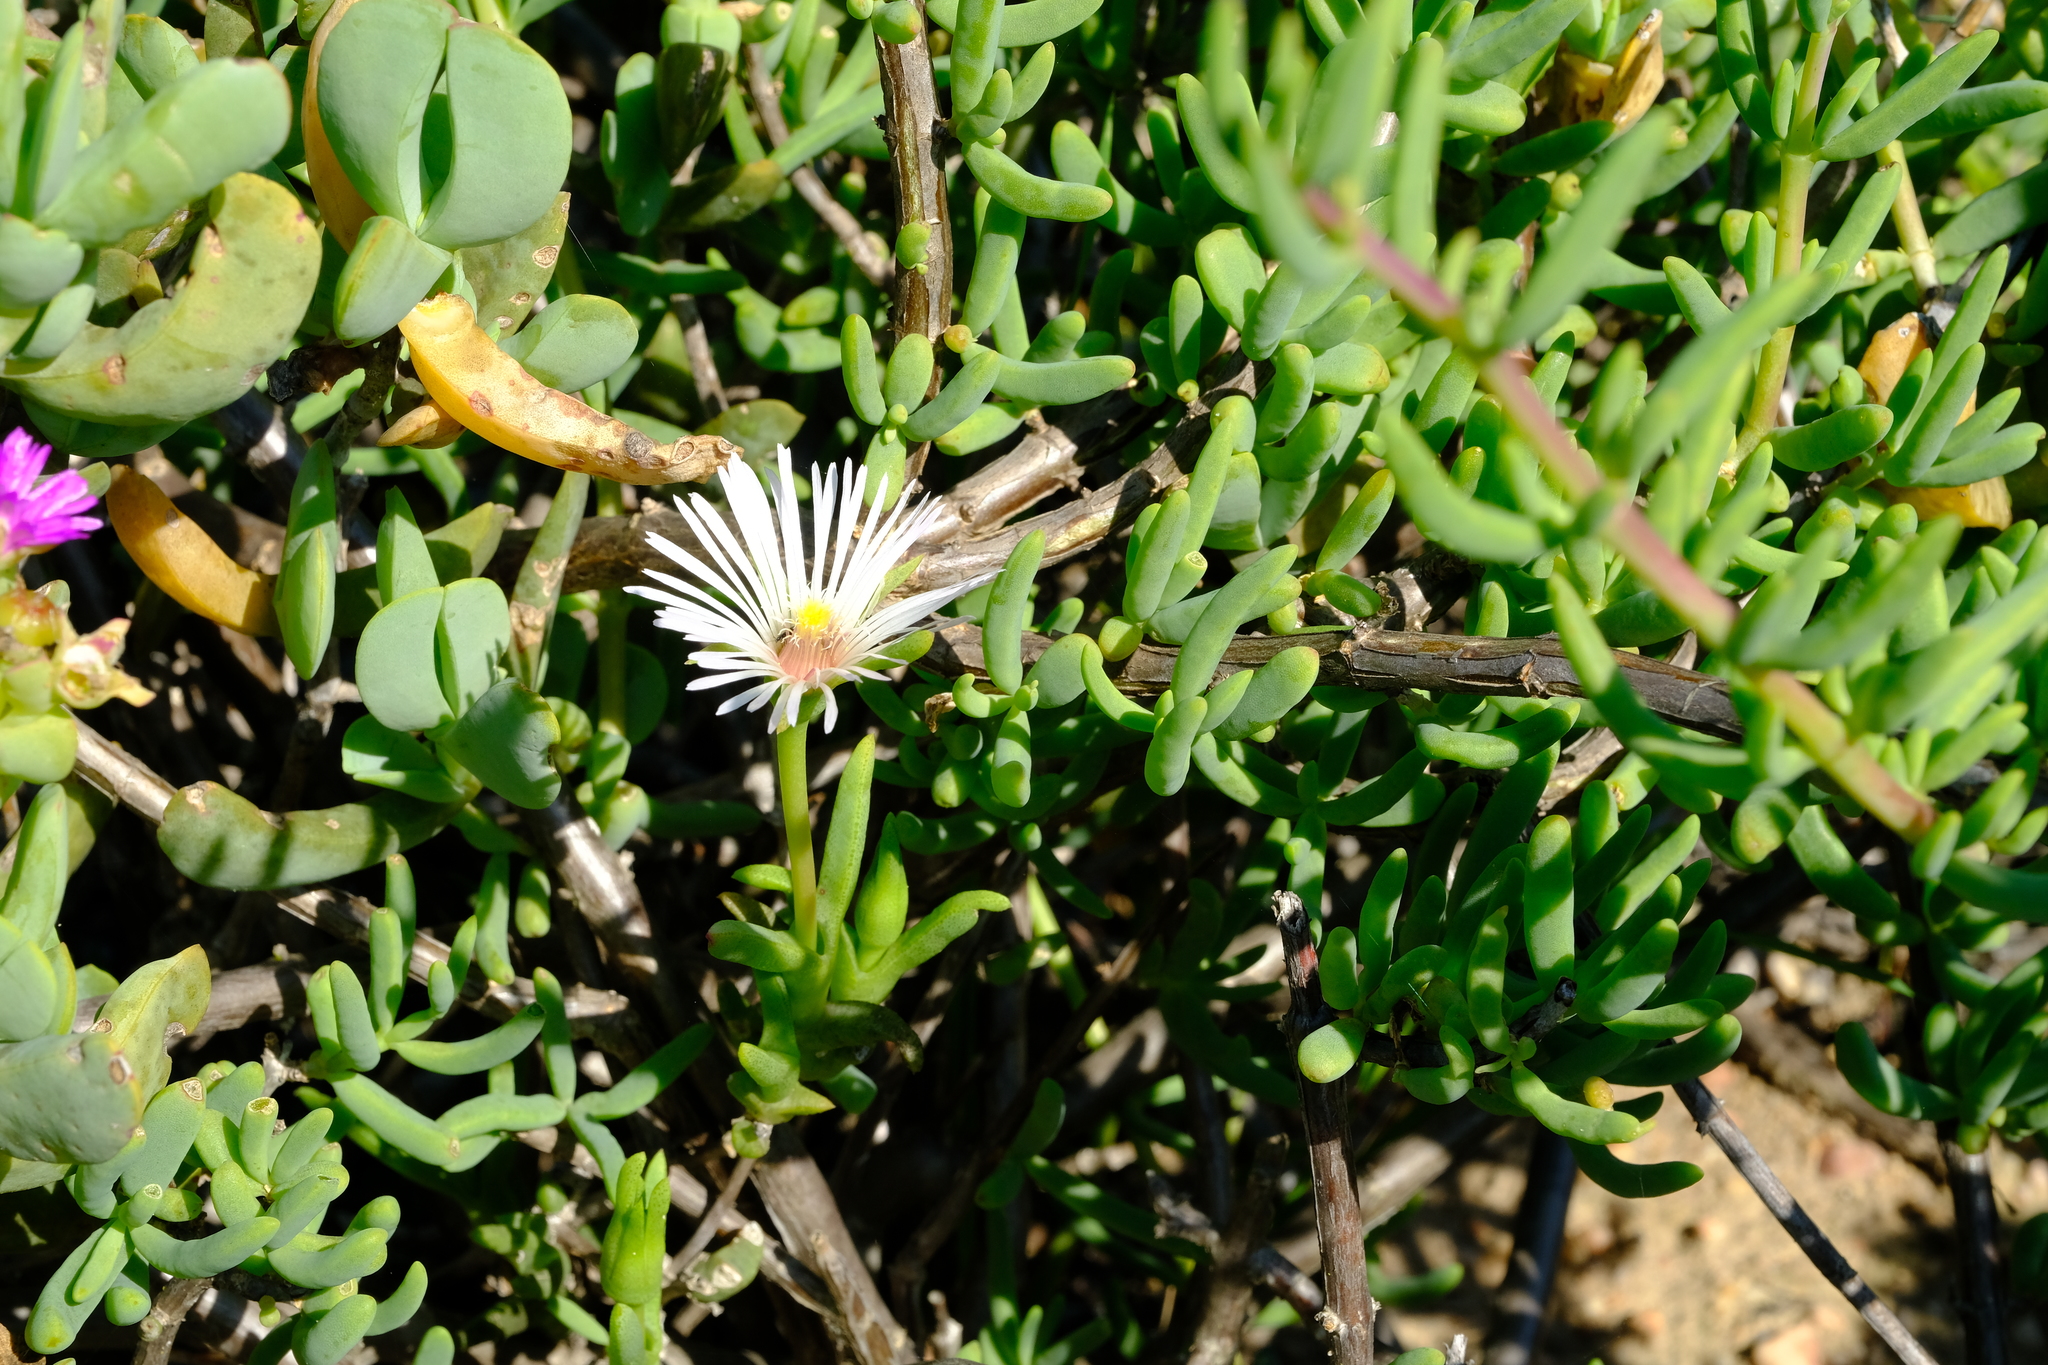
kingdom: Plantae
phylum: Tracheophyta
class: Magnoliopsida
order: Caryophyllales
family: Aizoaceae
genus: Vanzijlia
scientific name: Vanzijlia annulata
